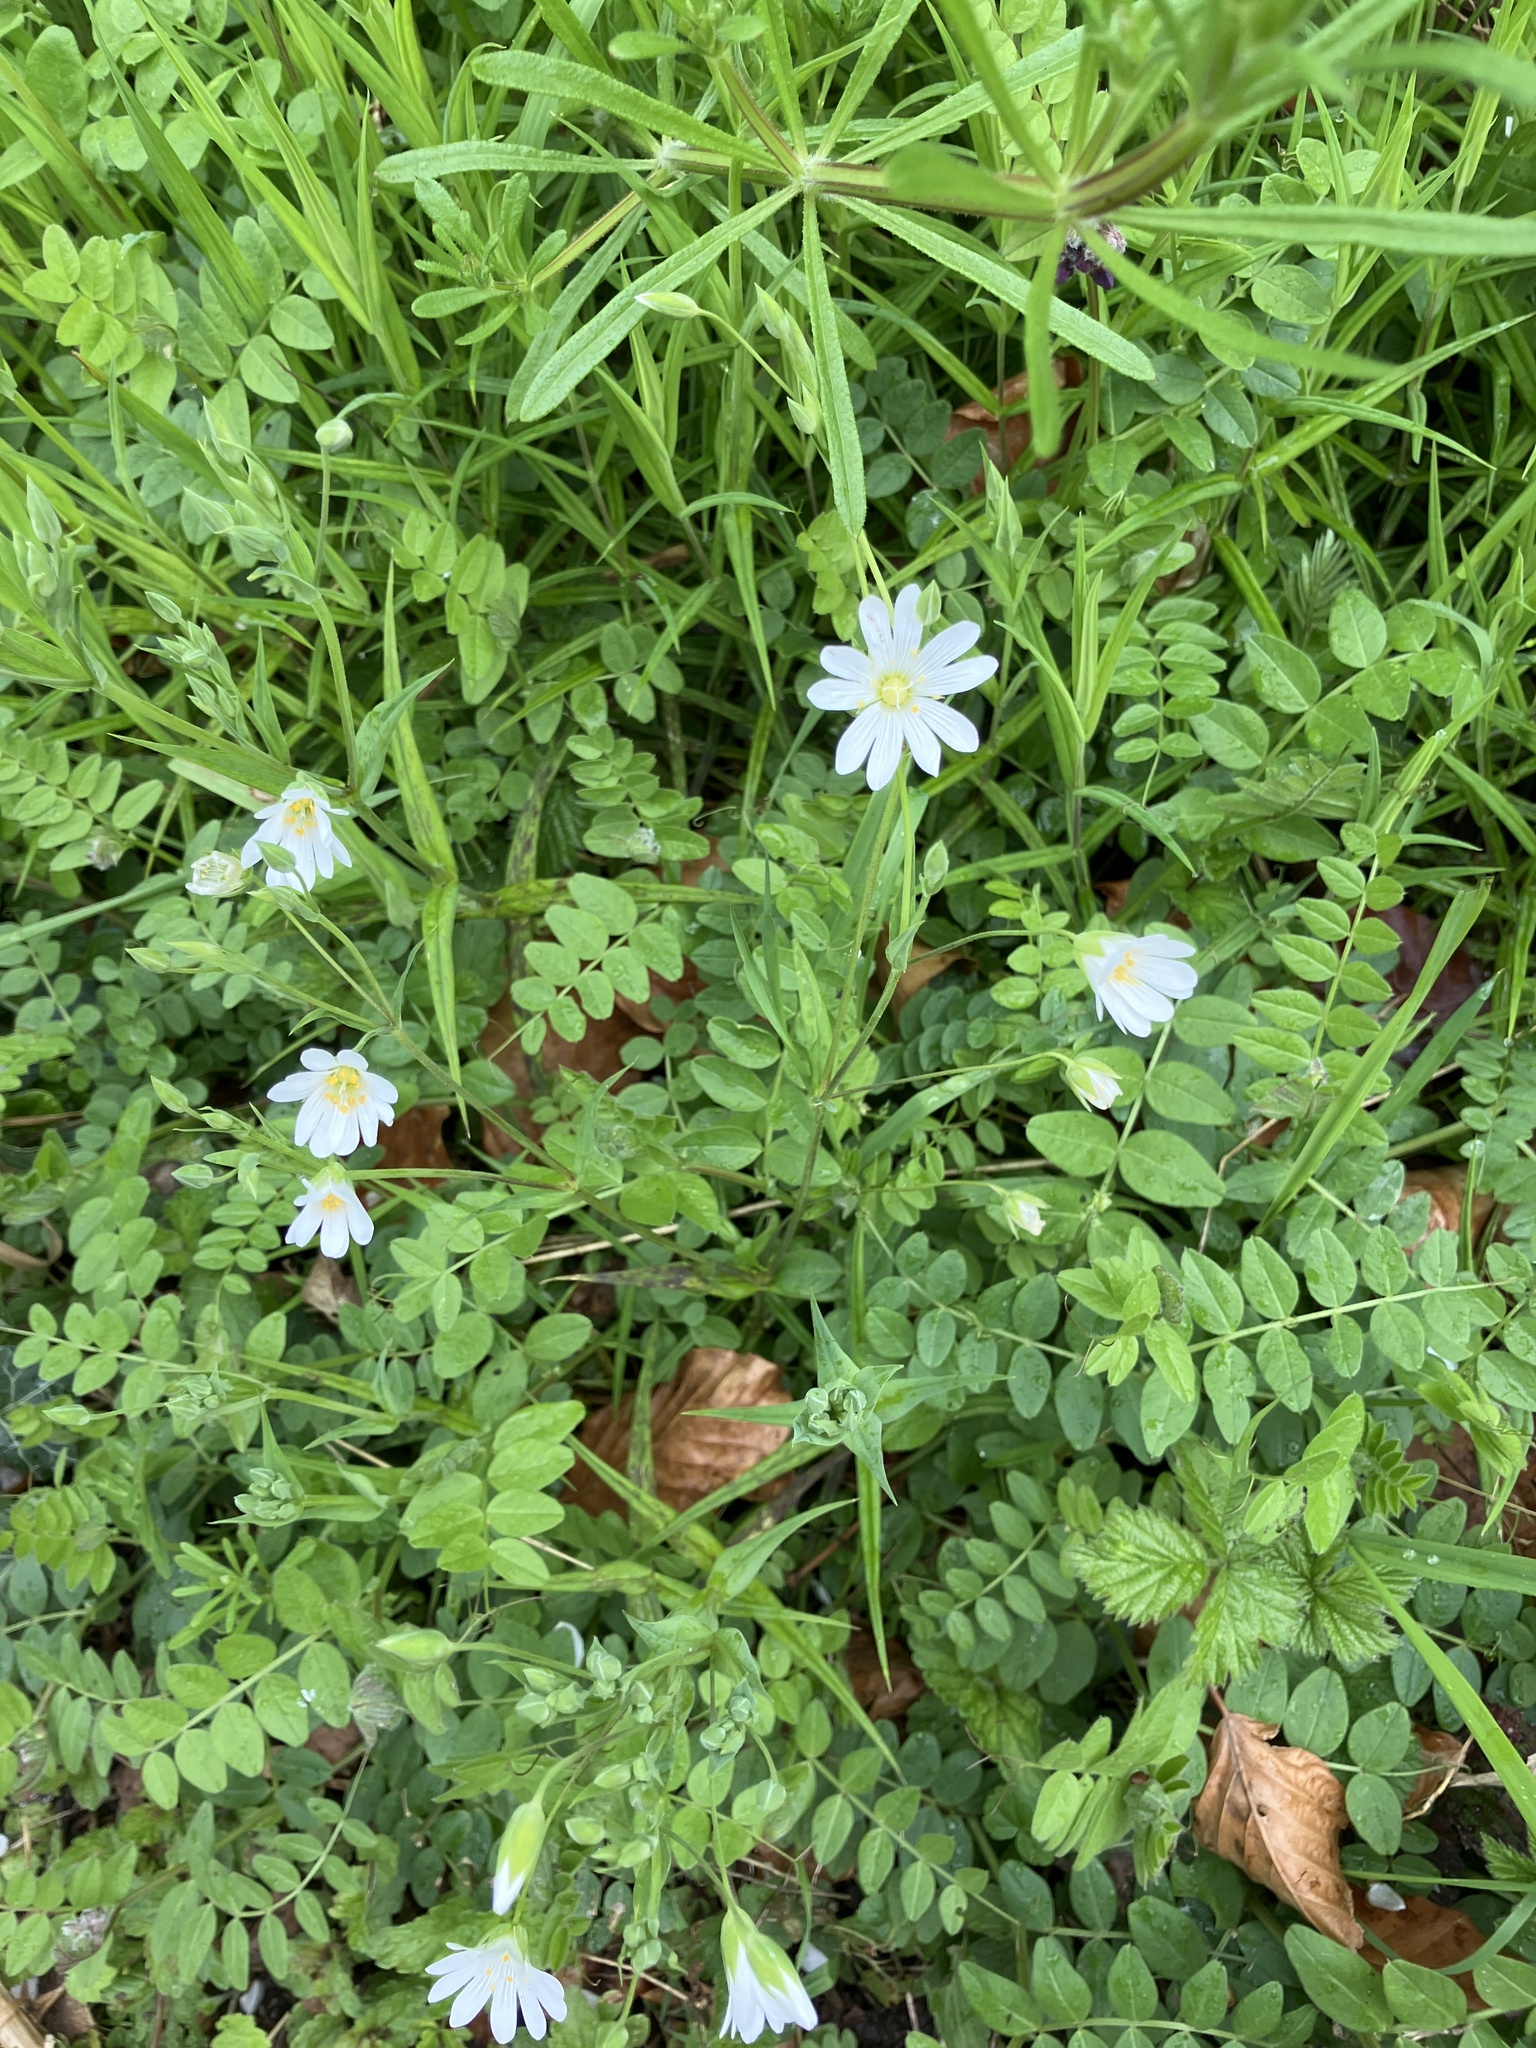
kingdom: Plantae
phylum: Tracheophyta
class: Magnoliopsida
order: Caryophyllales
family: Caryophyllaceae
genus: Rabelera
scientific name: Rabelera holostea
